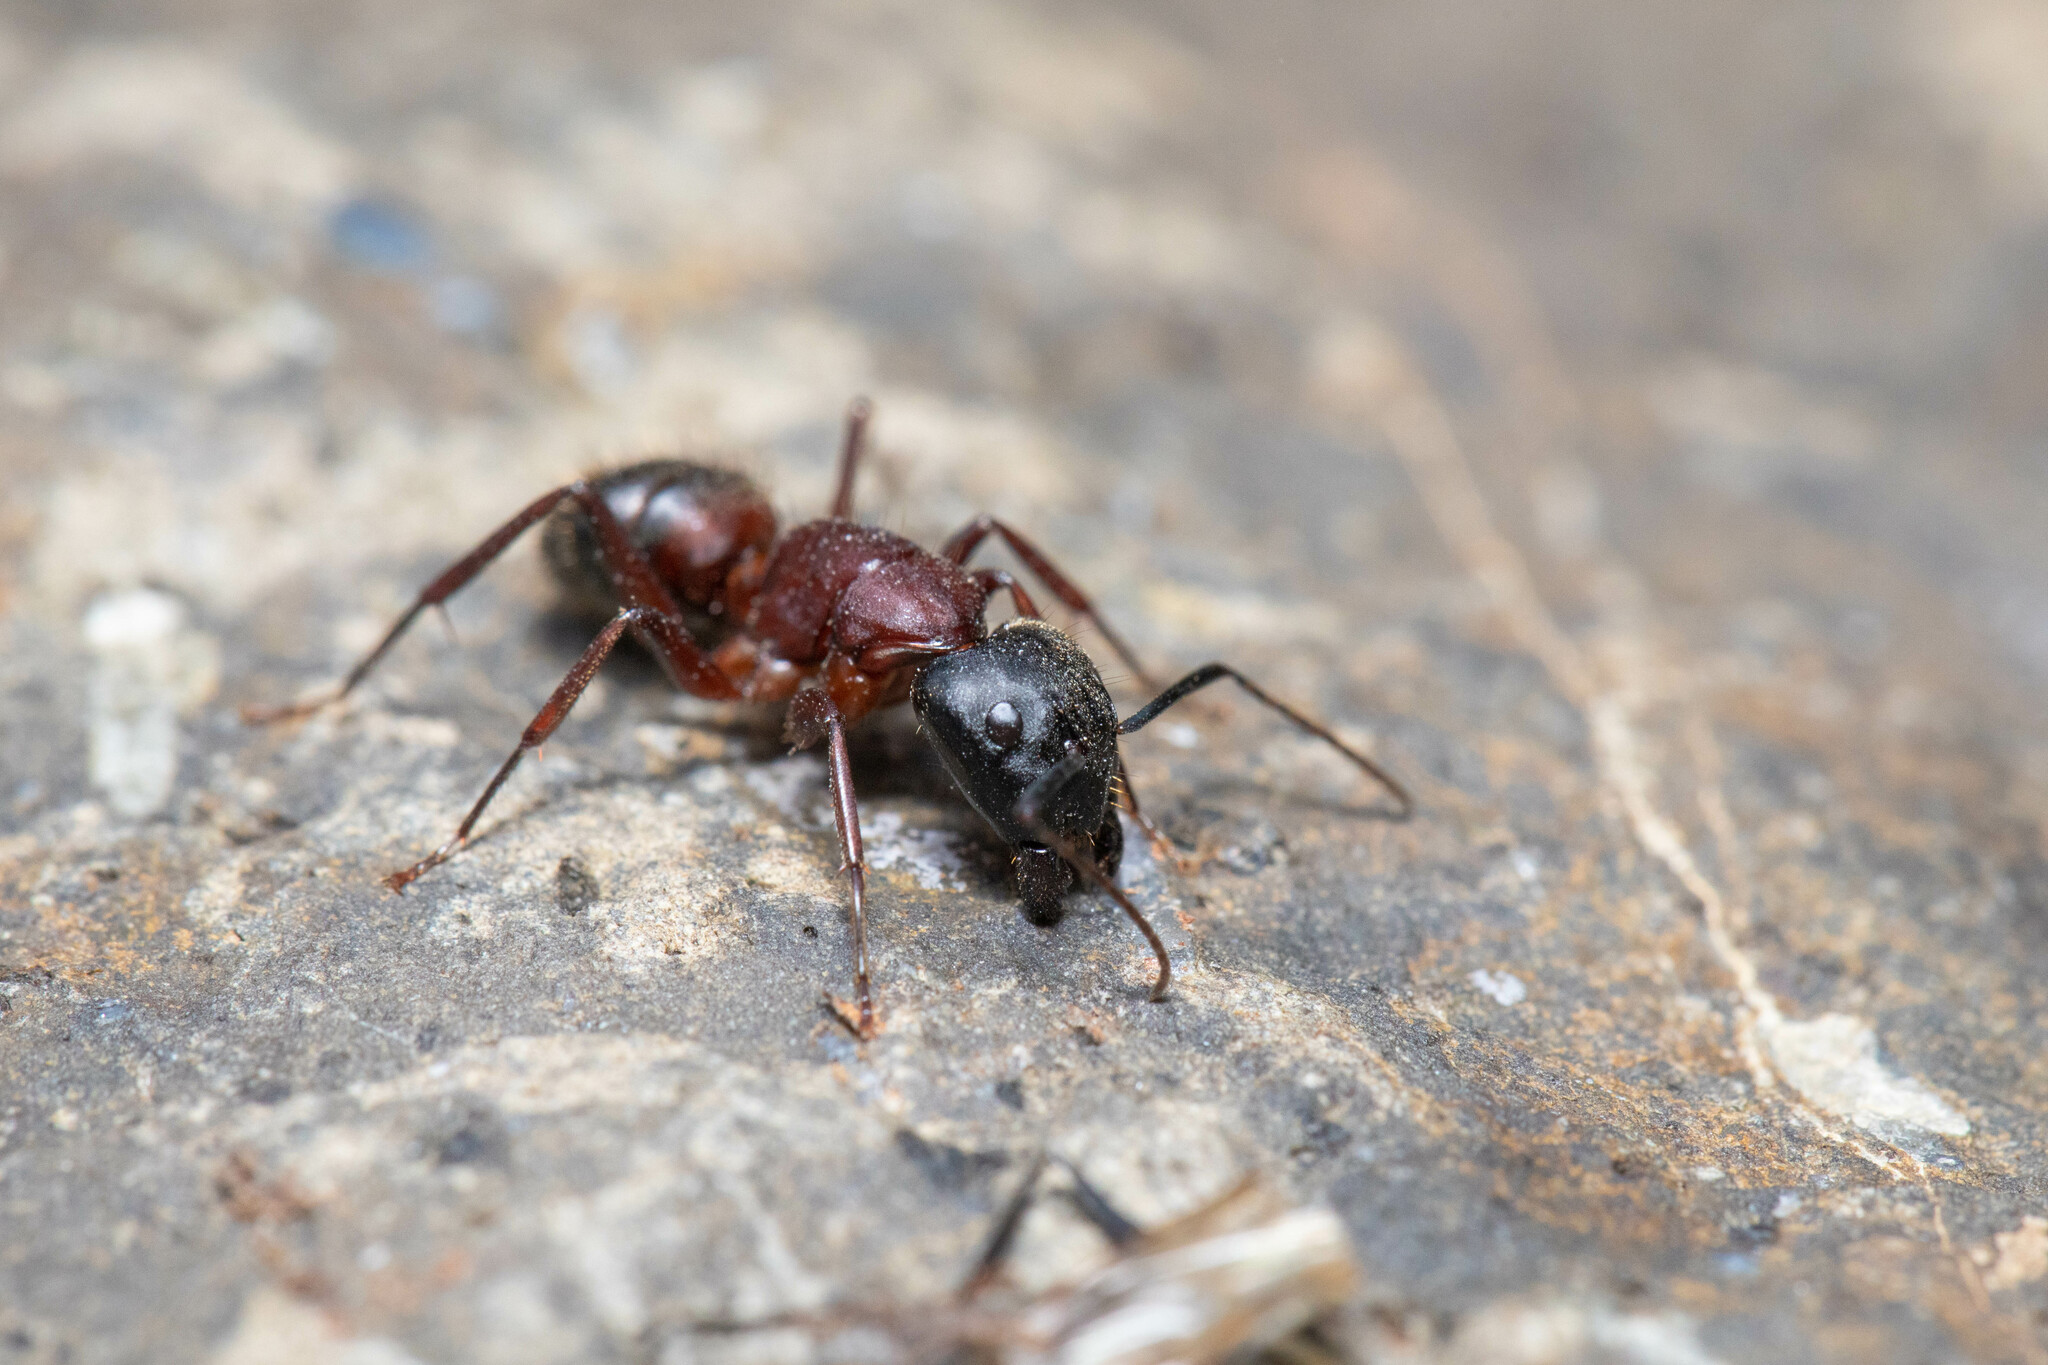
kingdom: Animalia
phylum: Arthropoda
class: Insecta
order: Hymenoptera
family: Formicidae
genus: Camponotus
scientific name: Camponotus vicinus
